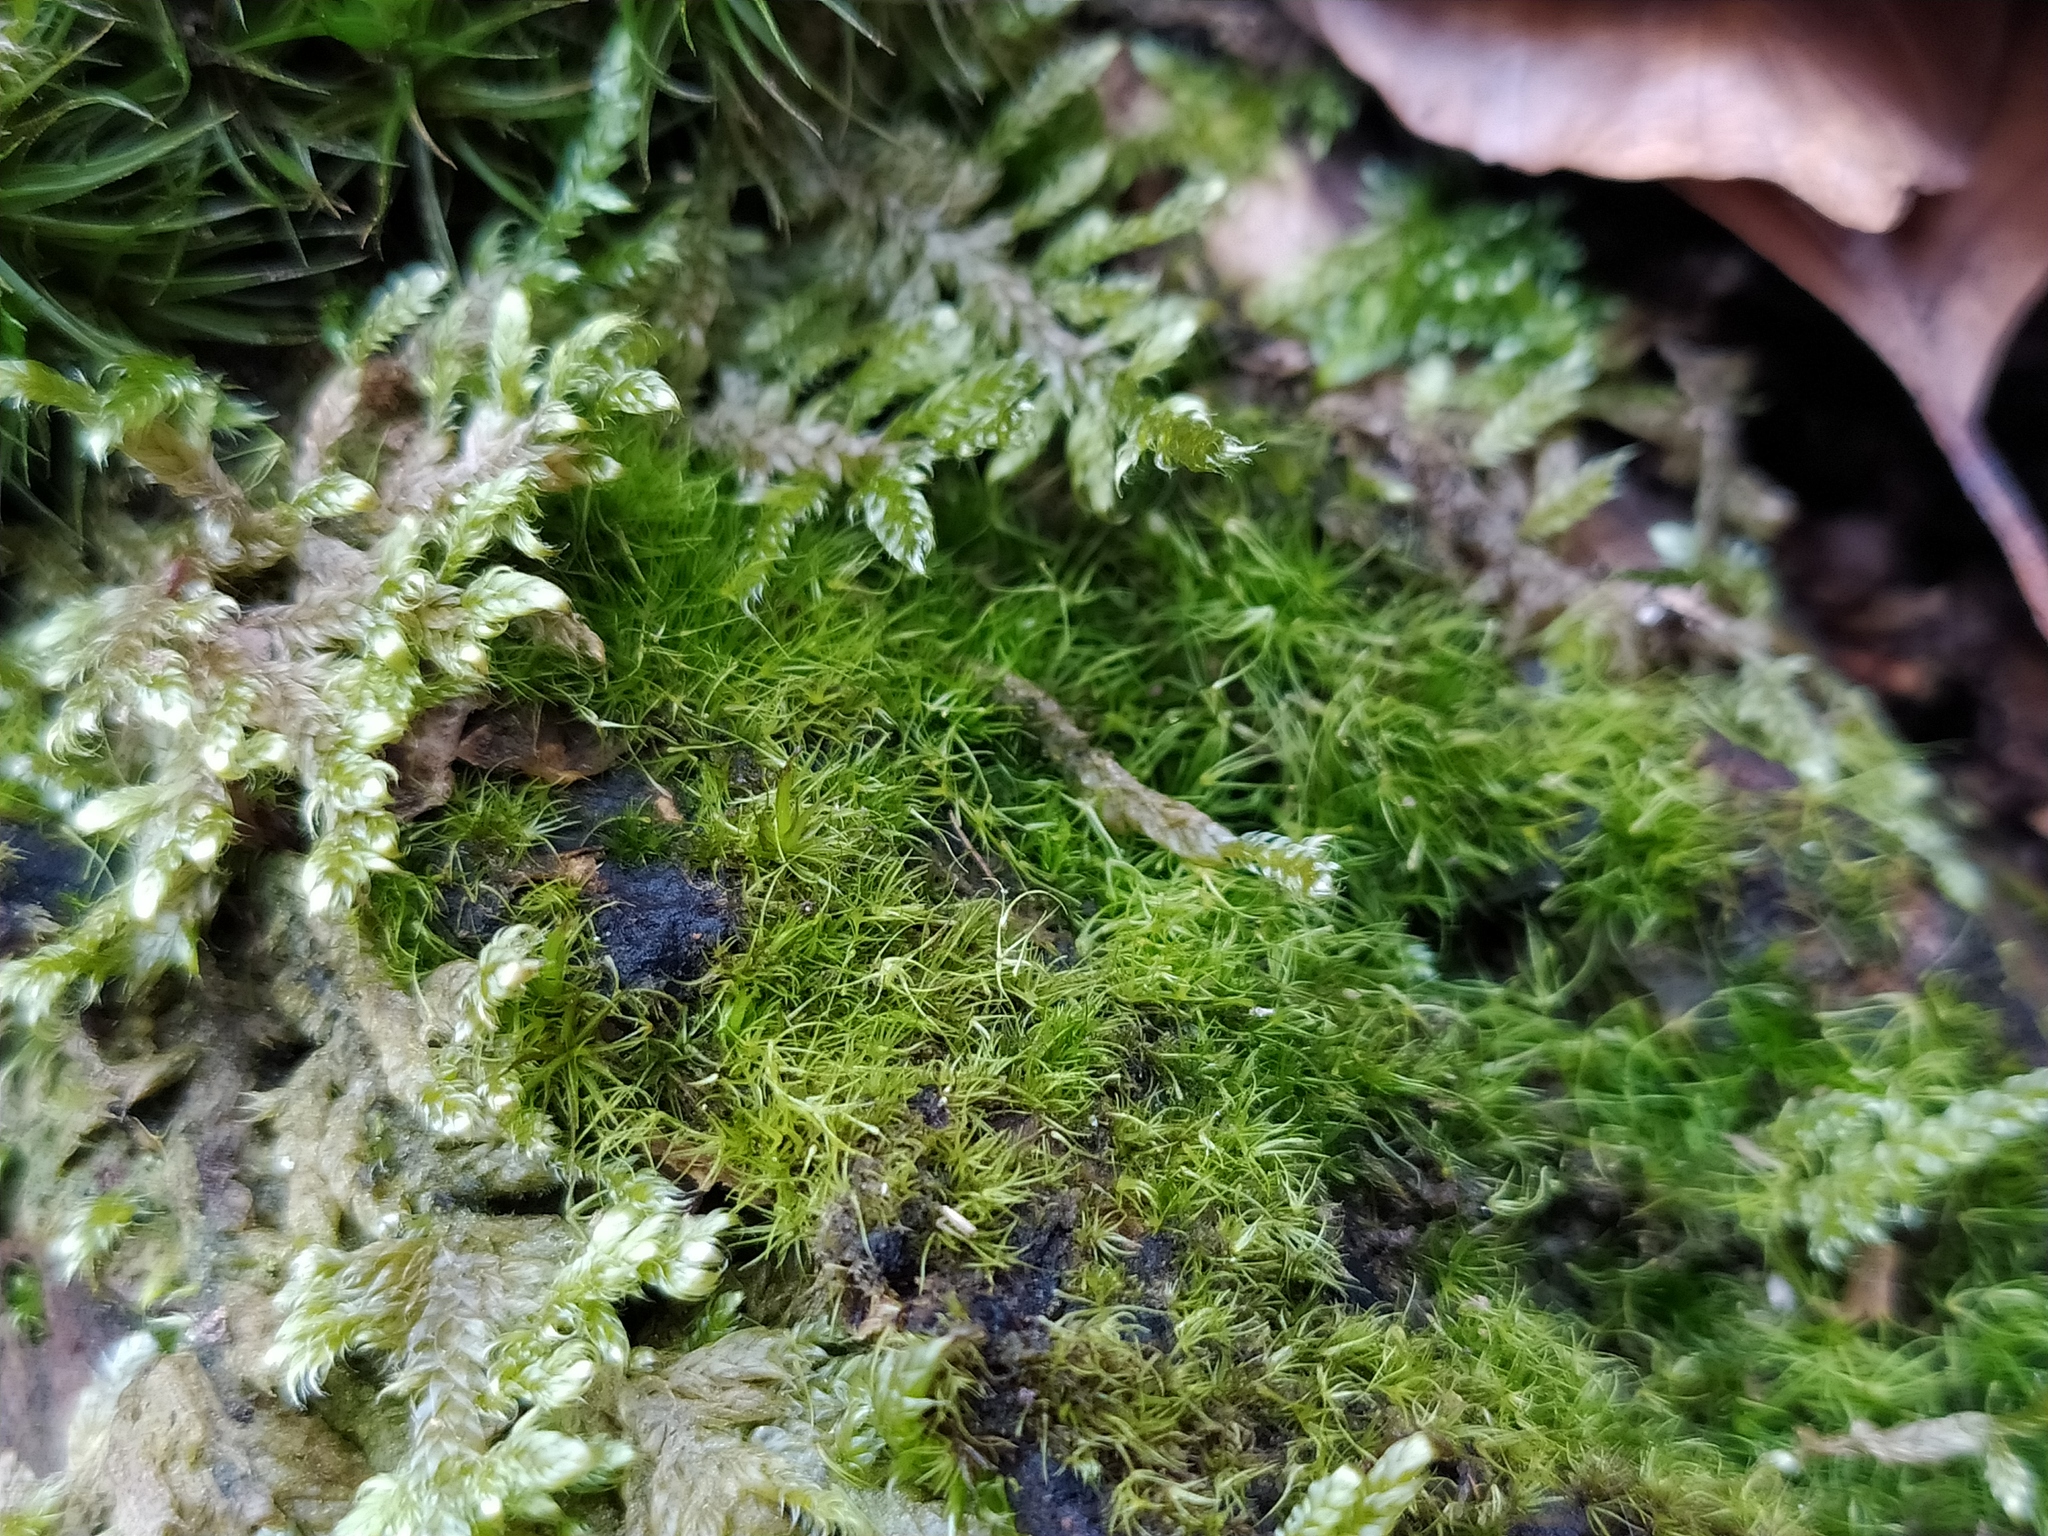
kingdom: Plantae
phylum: Bryophyta
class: Bryopsida
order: Dicranales
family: Leucobryaceae
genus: Campylopus
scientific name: Campylopus flexuosus
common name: Rusty swan-neck moss
